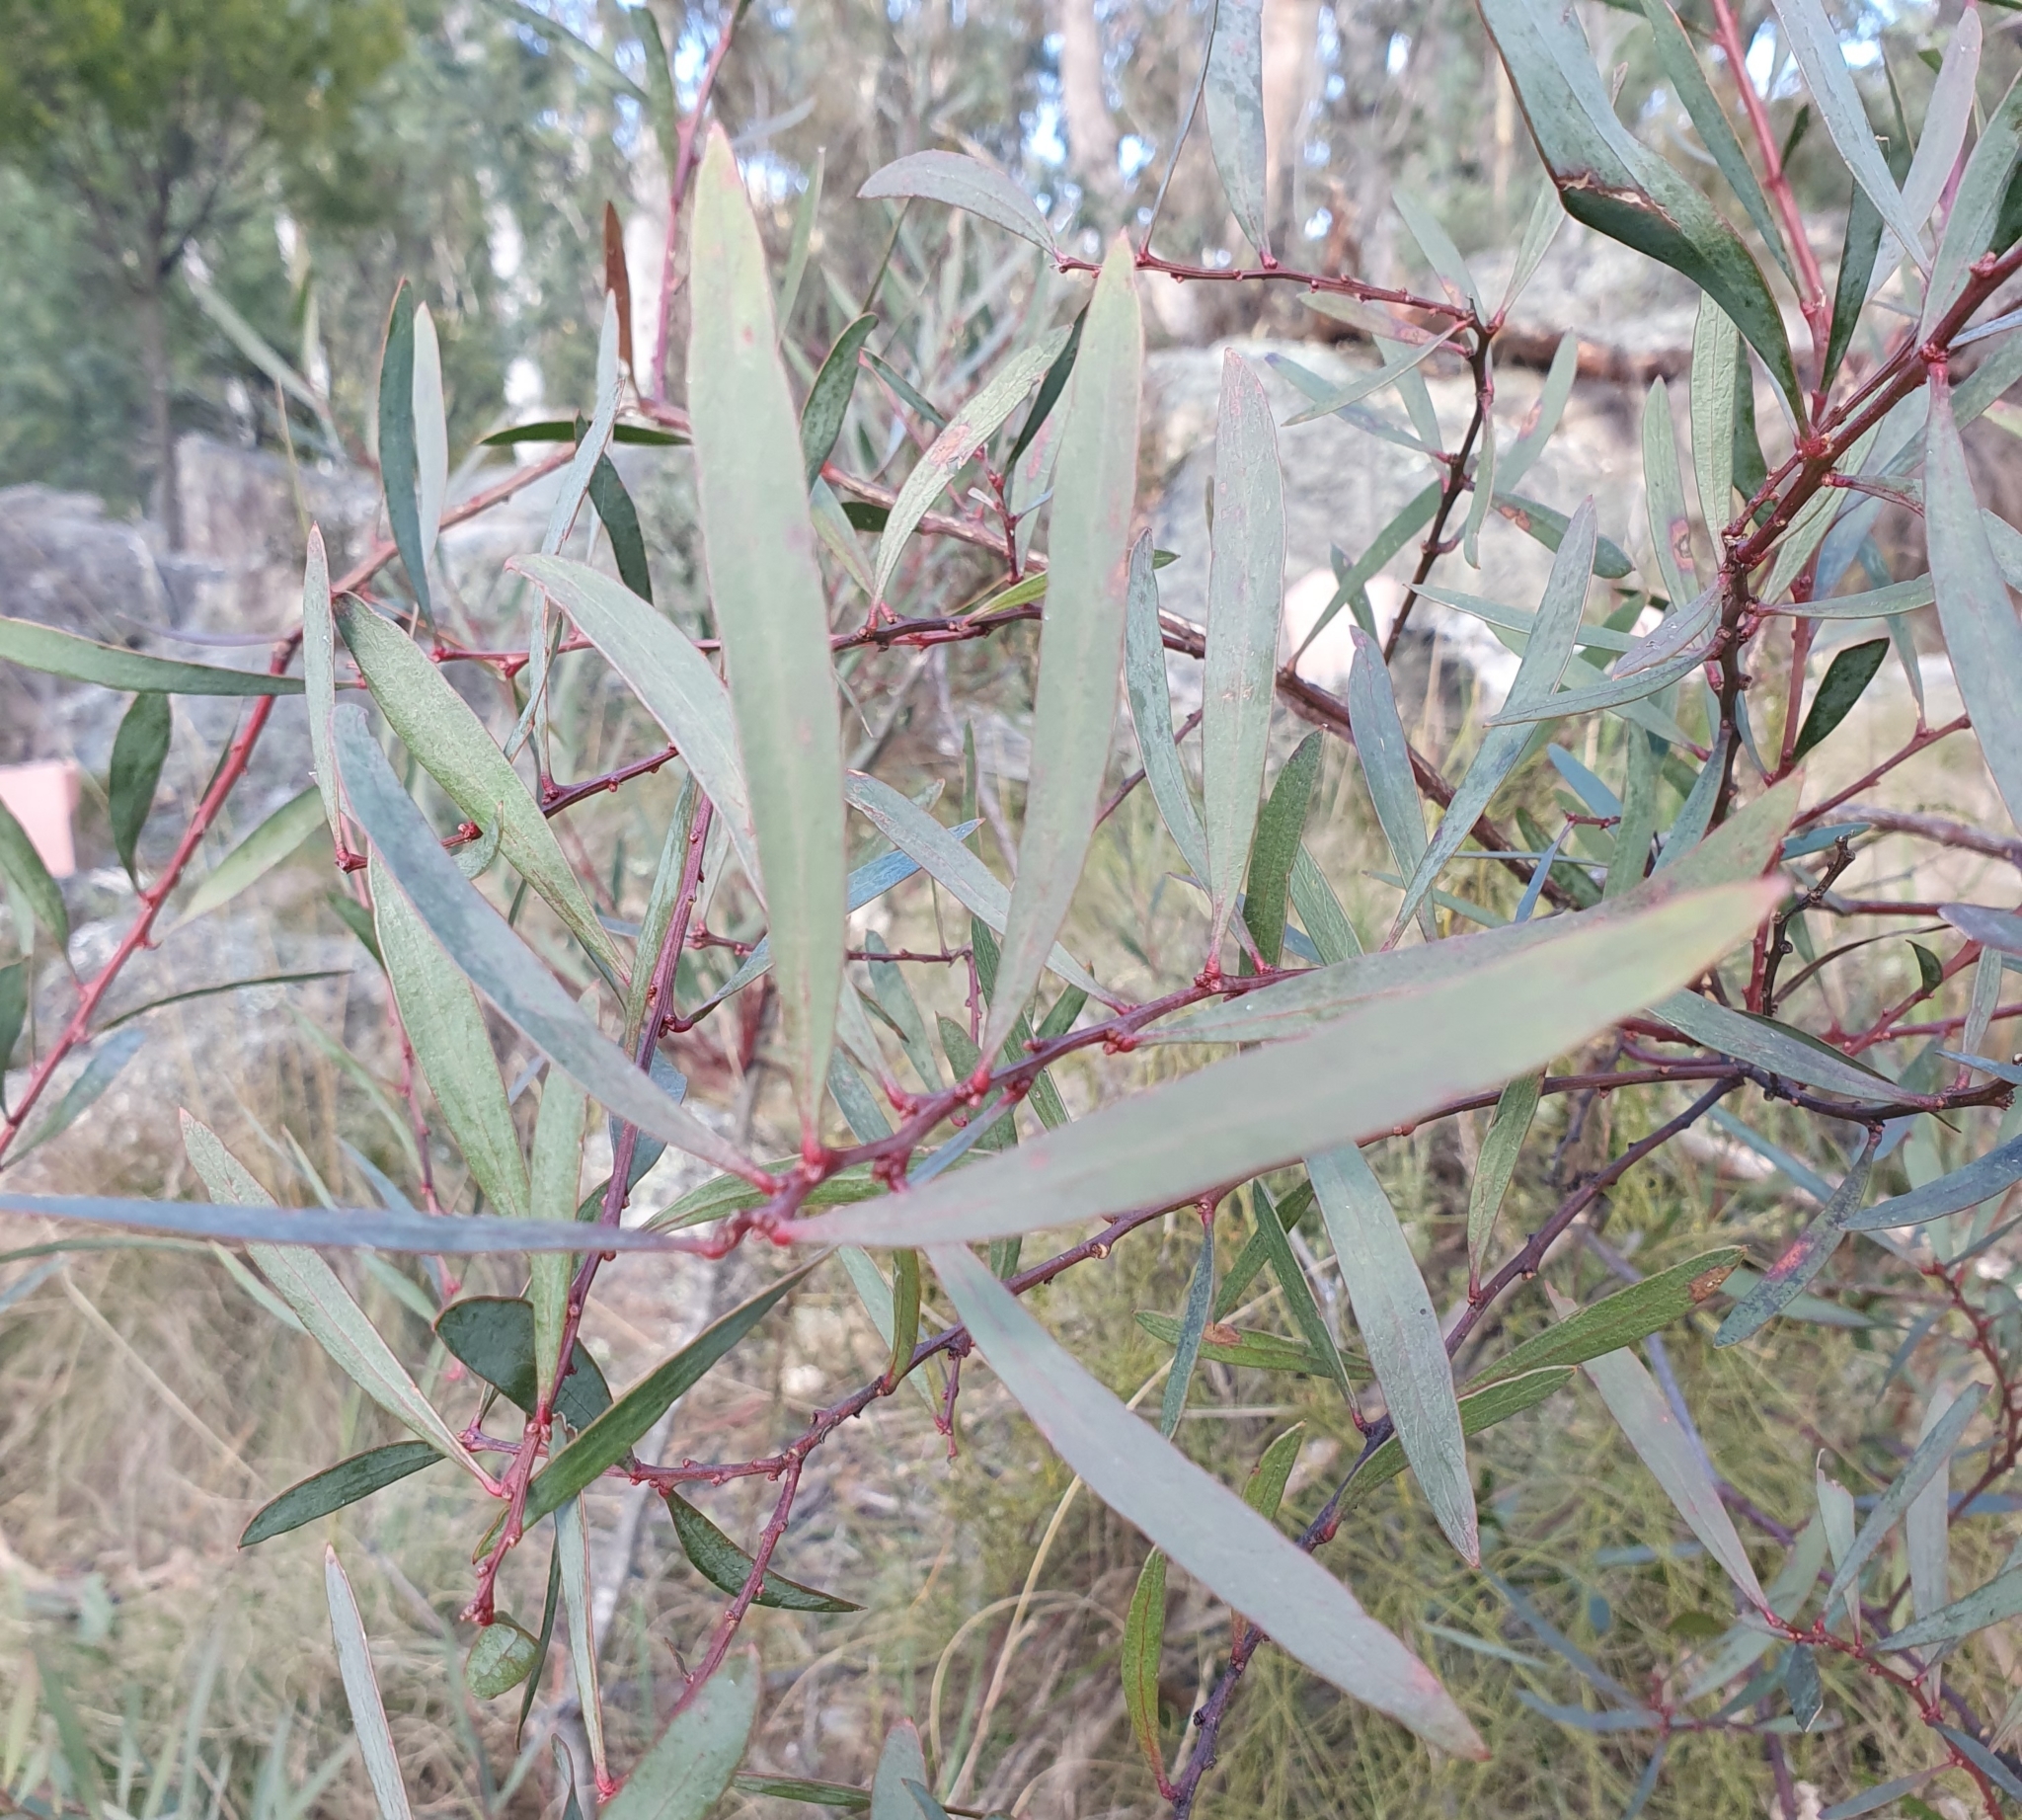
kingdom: Plantae
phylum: Tracheophyta
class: Magnoliopsida
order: Fabales
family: Fabaceae
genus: Daviesia
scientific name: Daviesia mimosoides
